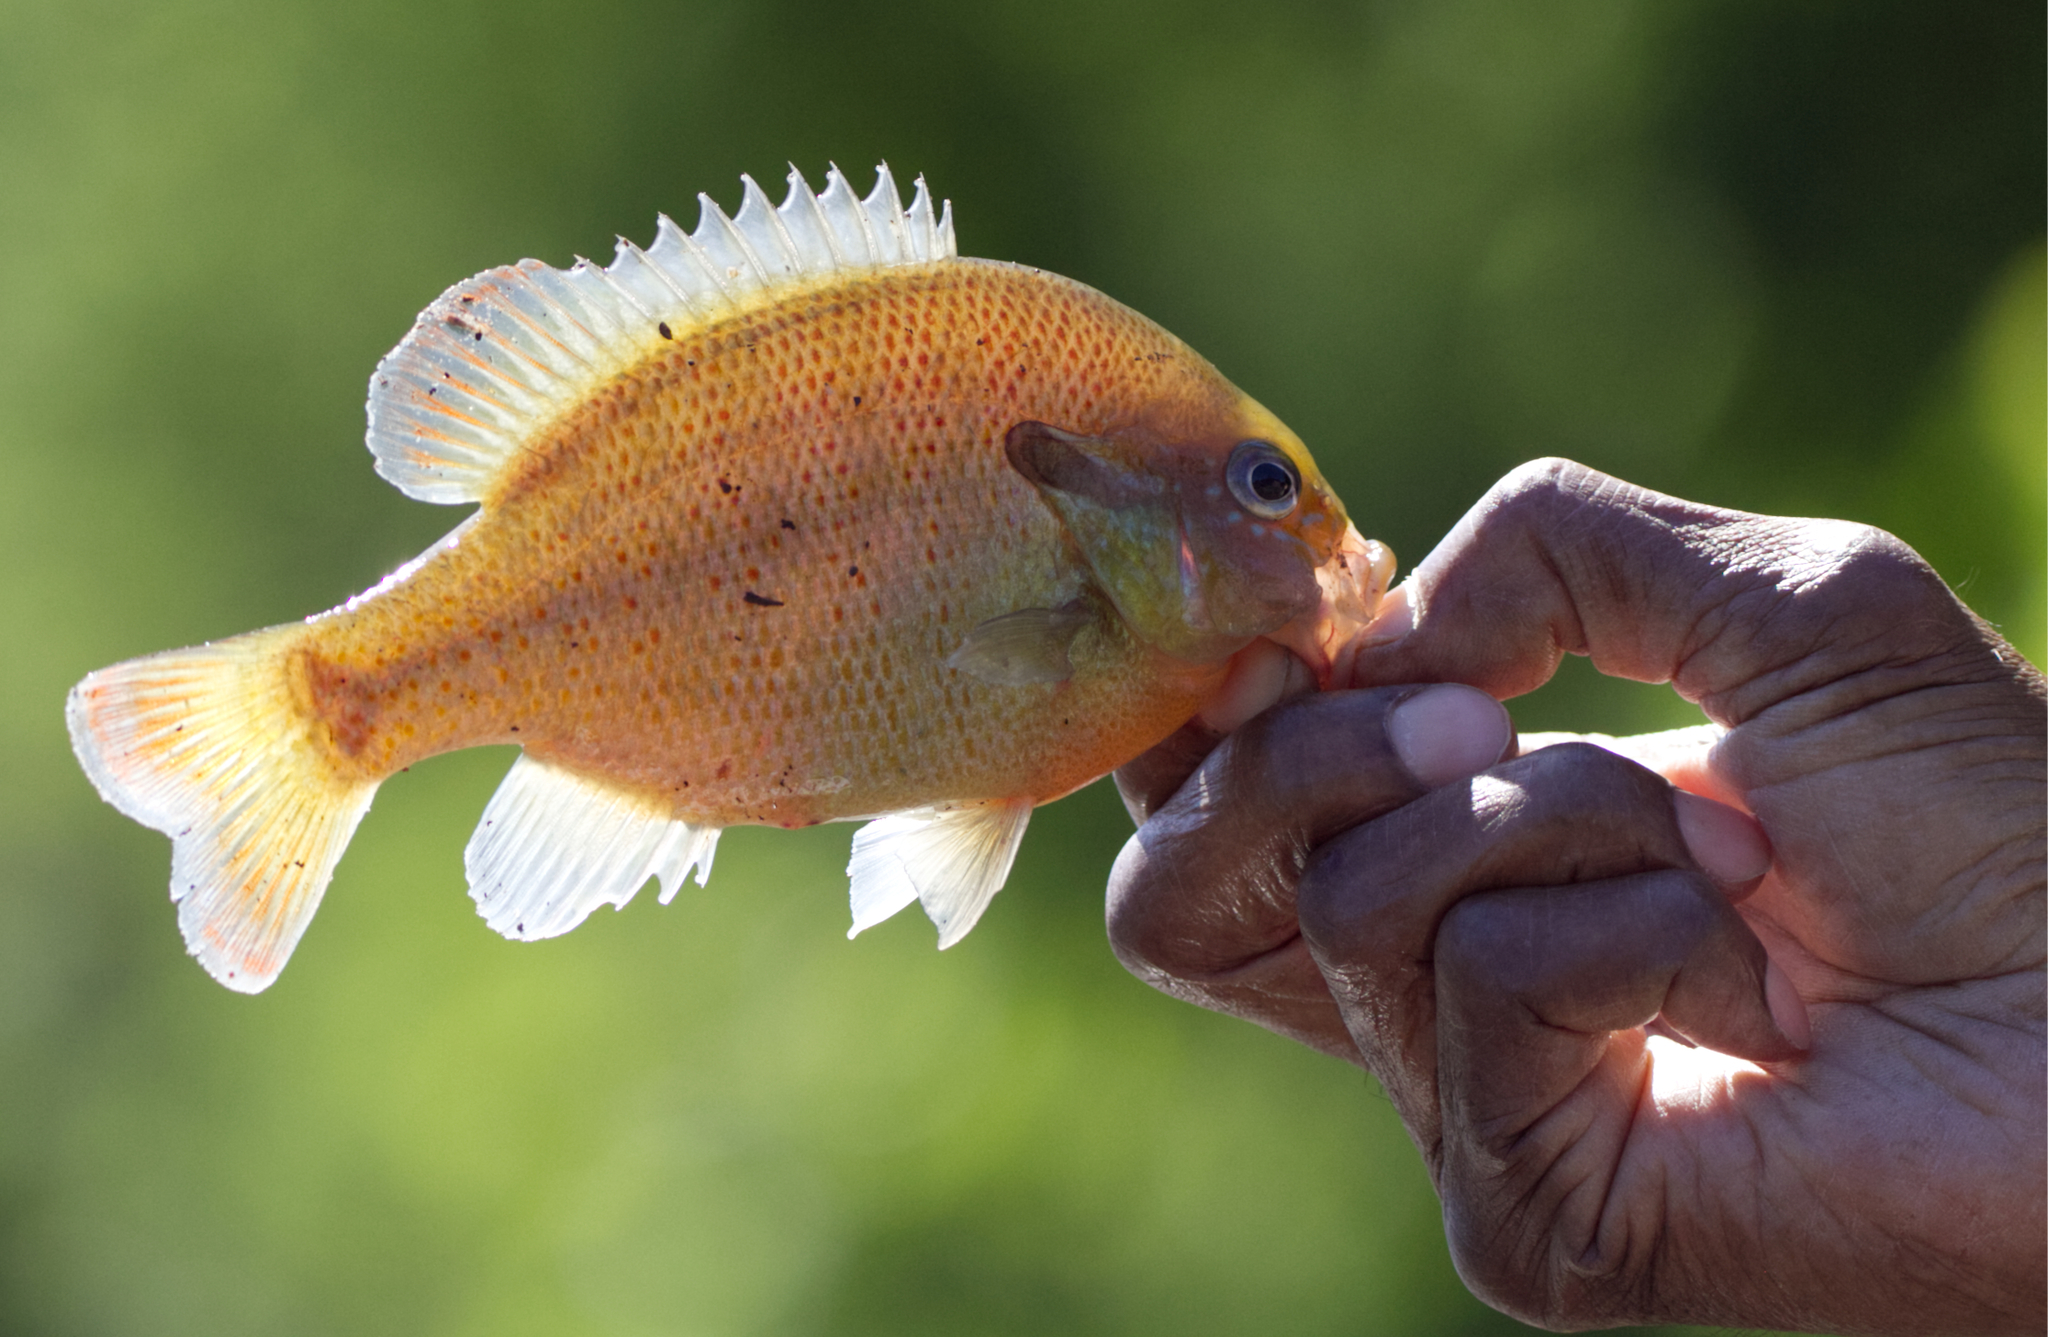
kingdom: Animalia
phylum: Chordata
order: Perciformes
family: Centrarchidae
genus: Lepomis
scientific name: Lepomis auritus
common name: Redbreast sunfish
